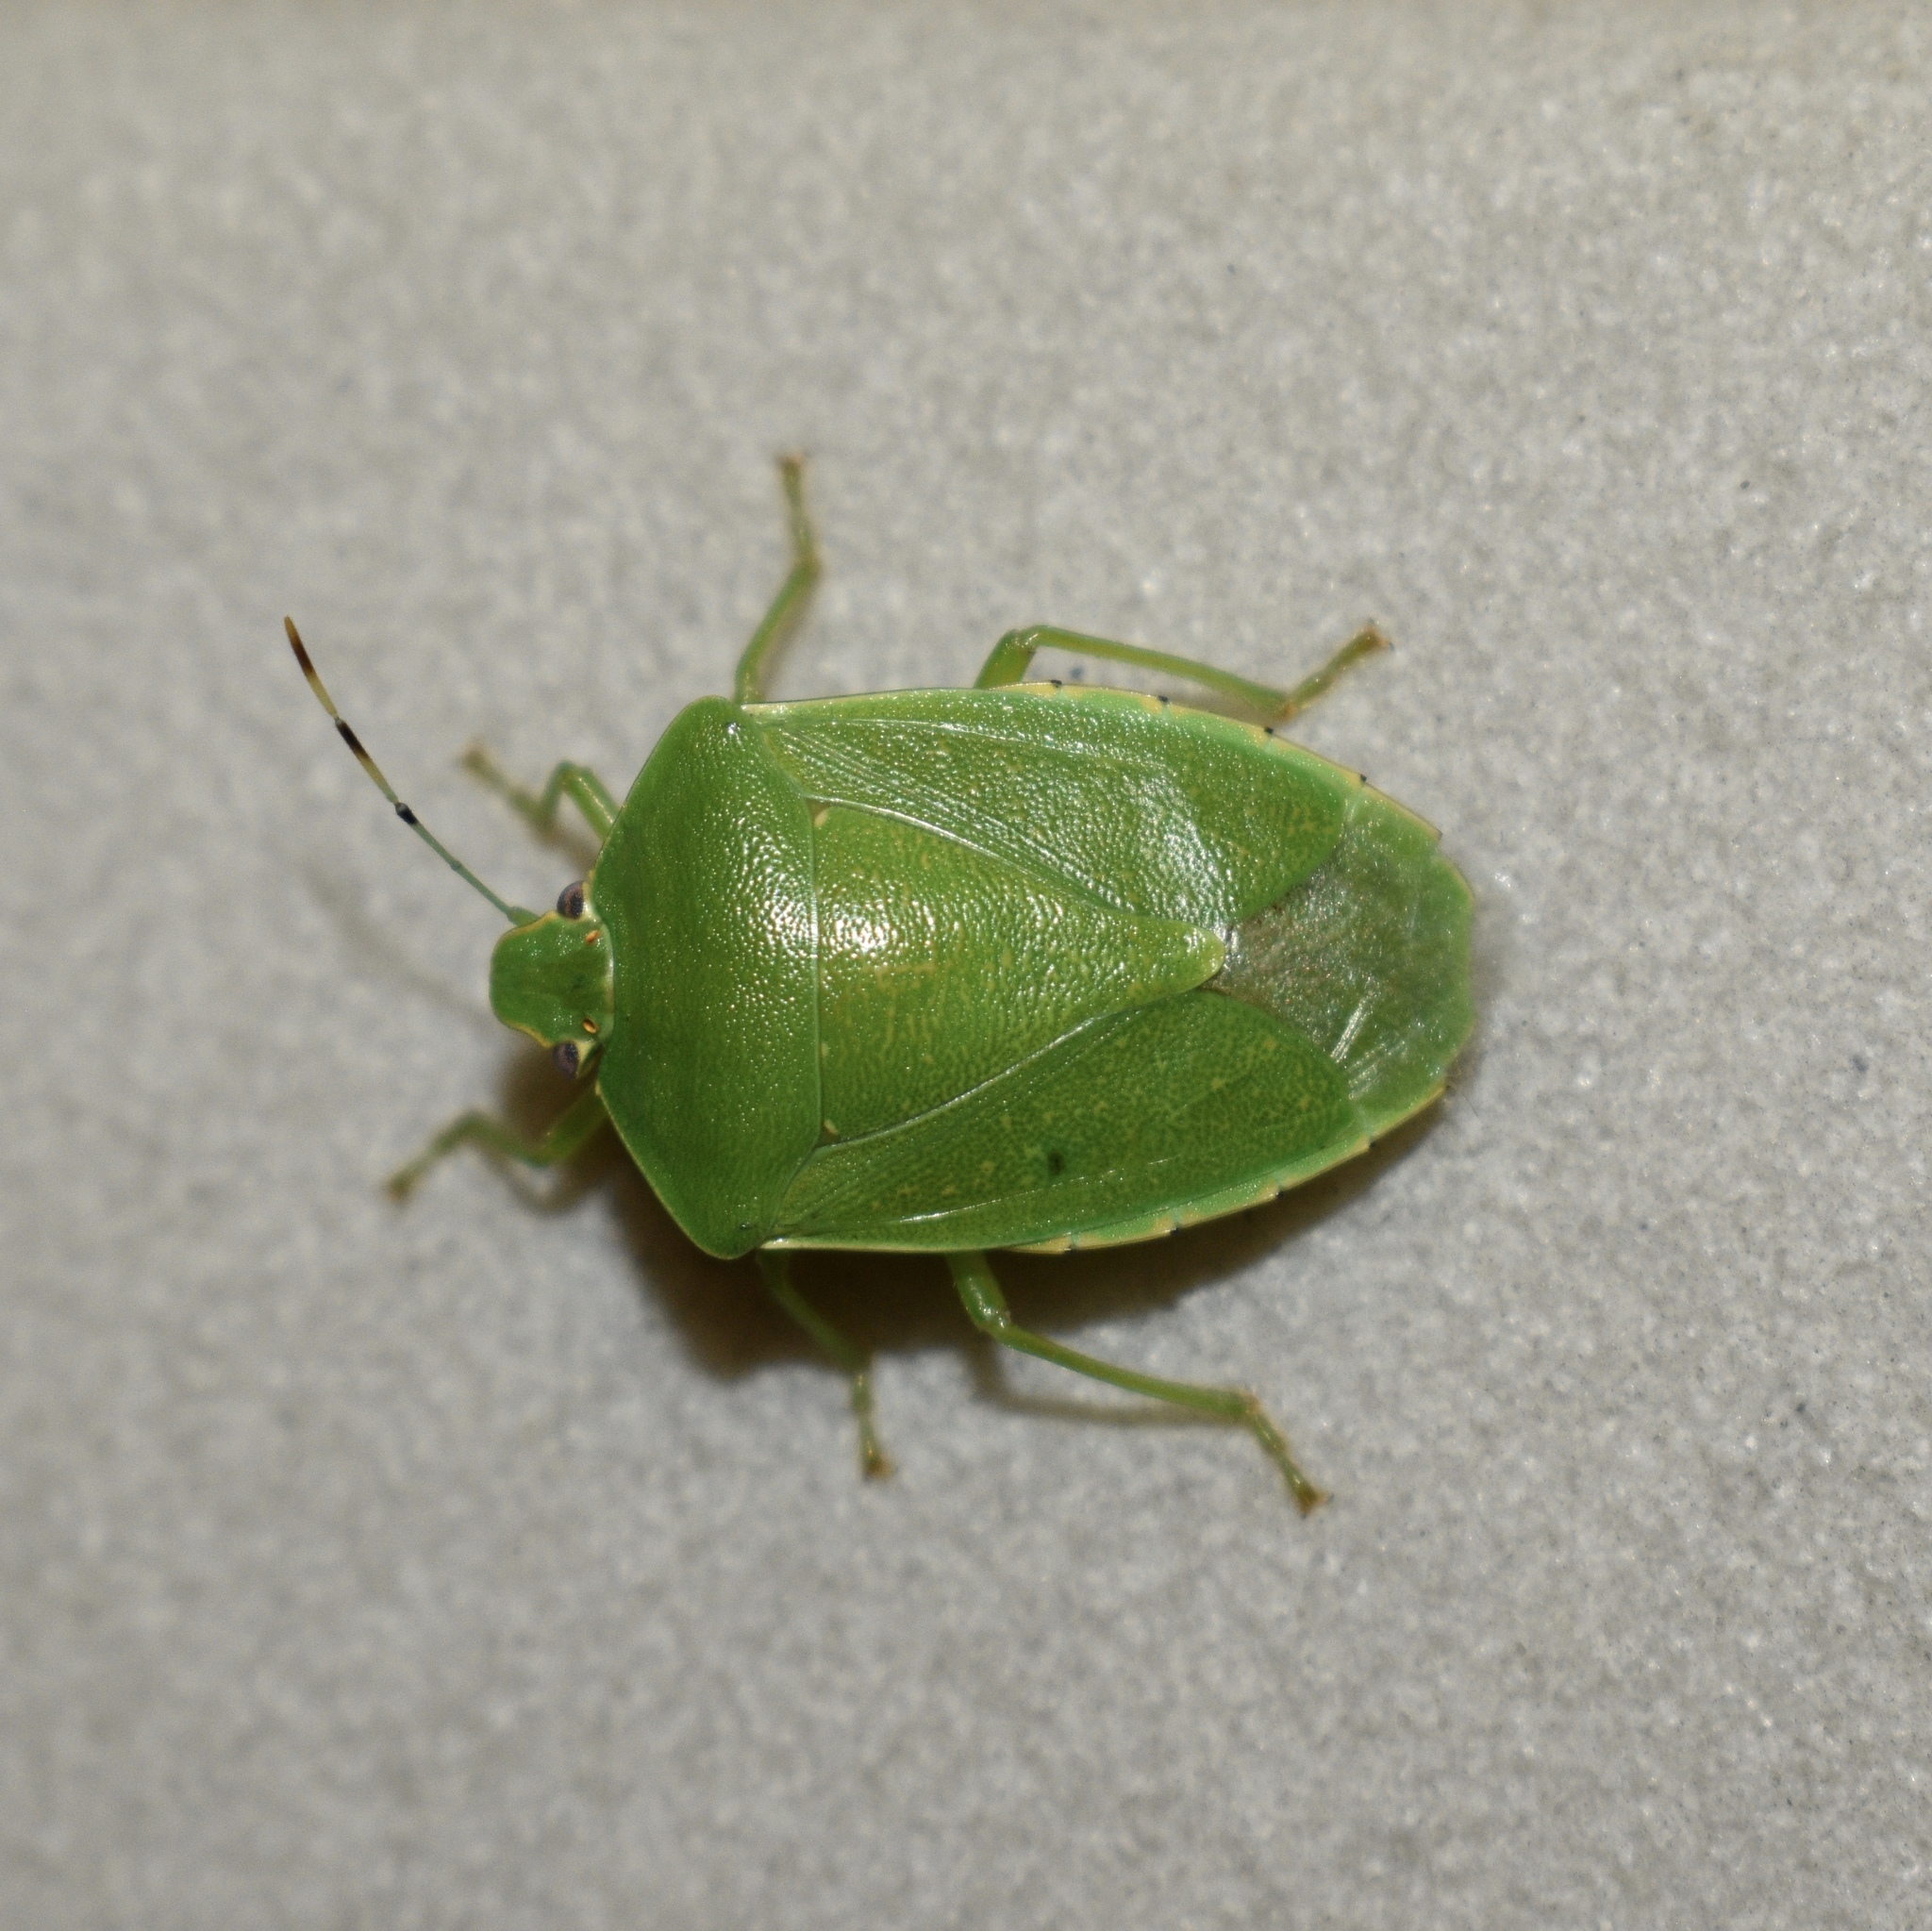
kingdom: Animalia
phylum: Arthropoda
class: Insecta
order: Hemiptera
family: Pentatomidae
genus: Chinavia
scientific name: Chinavia hilaris
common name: Green stink bug
